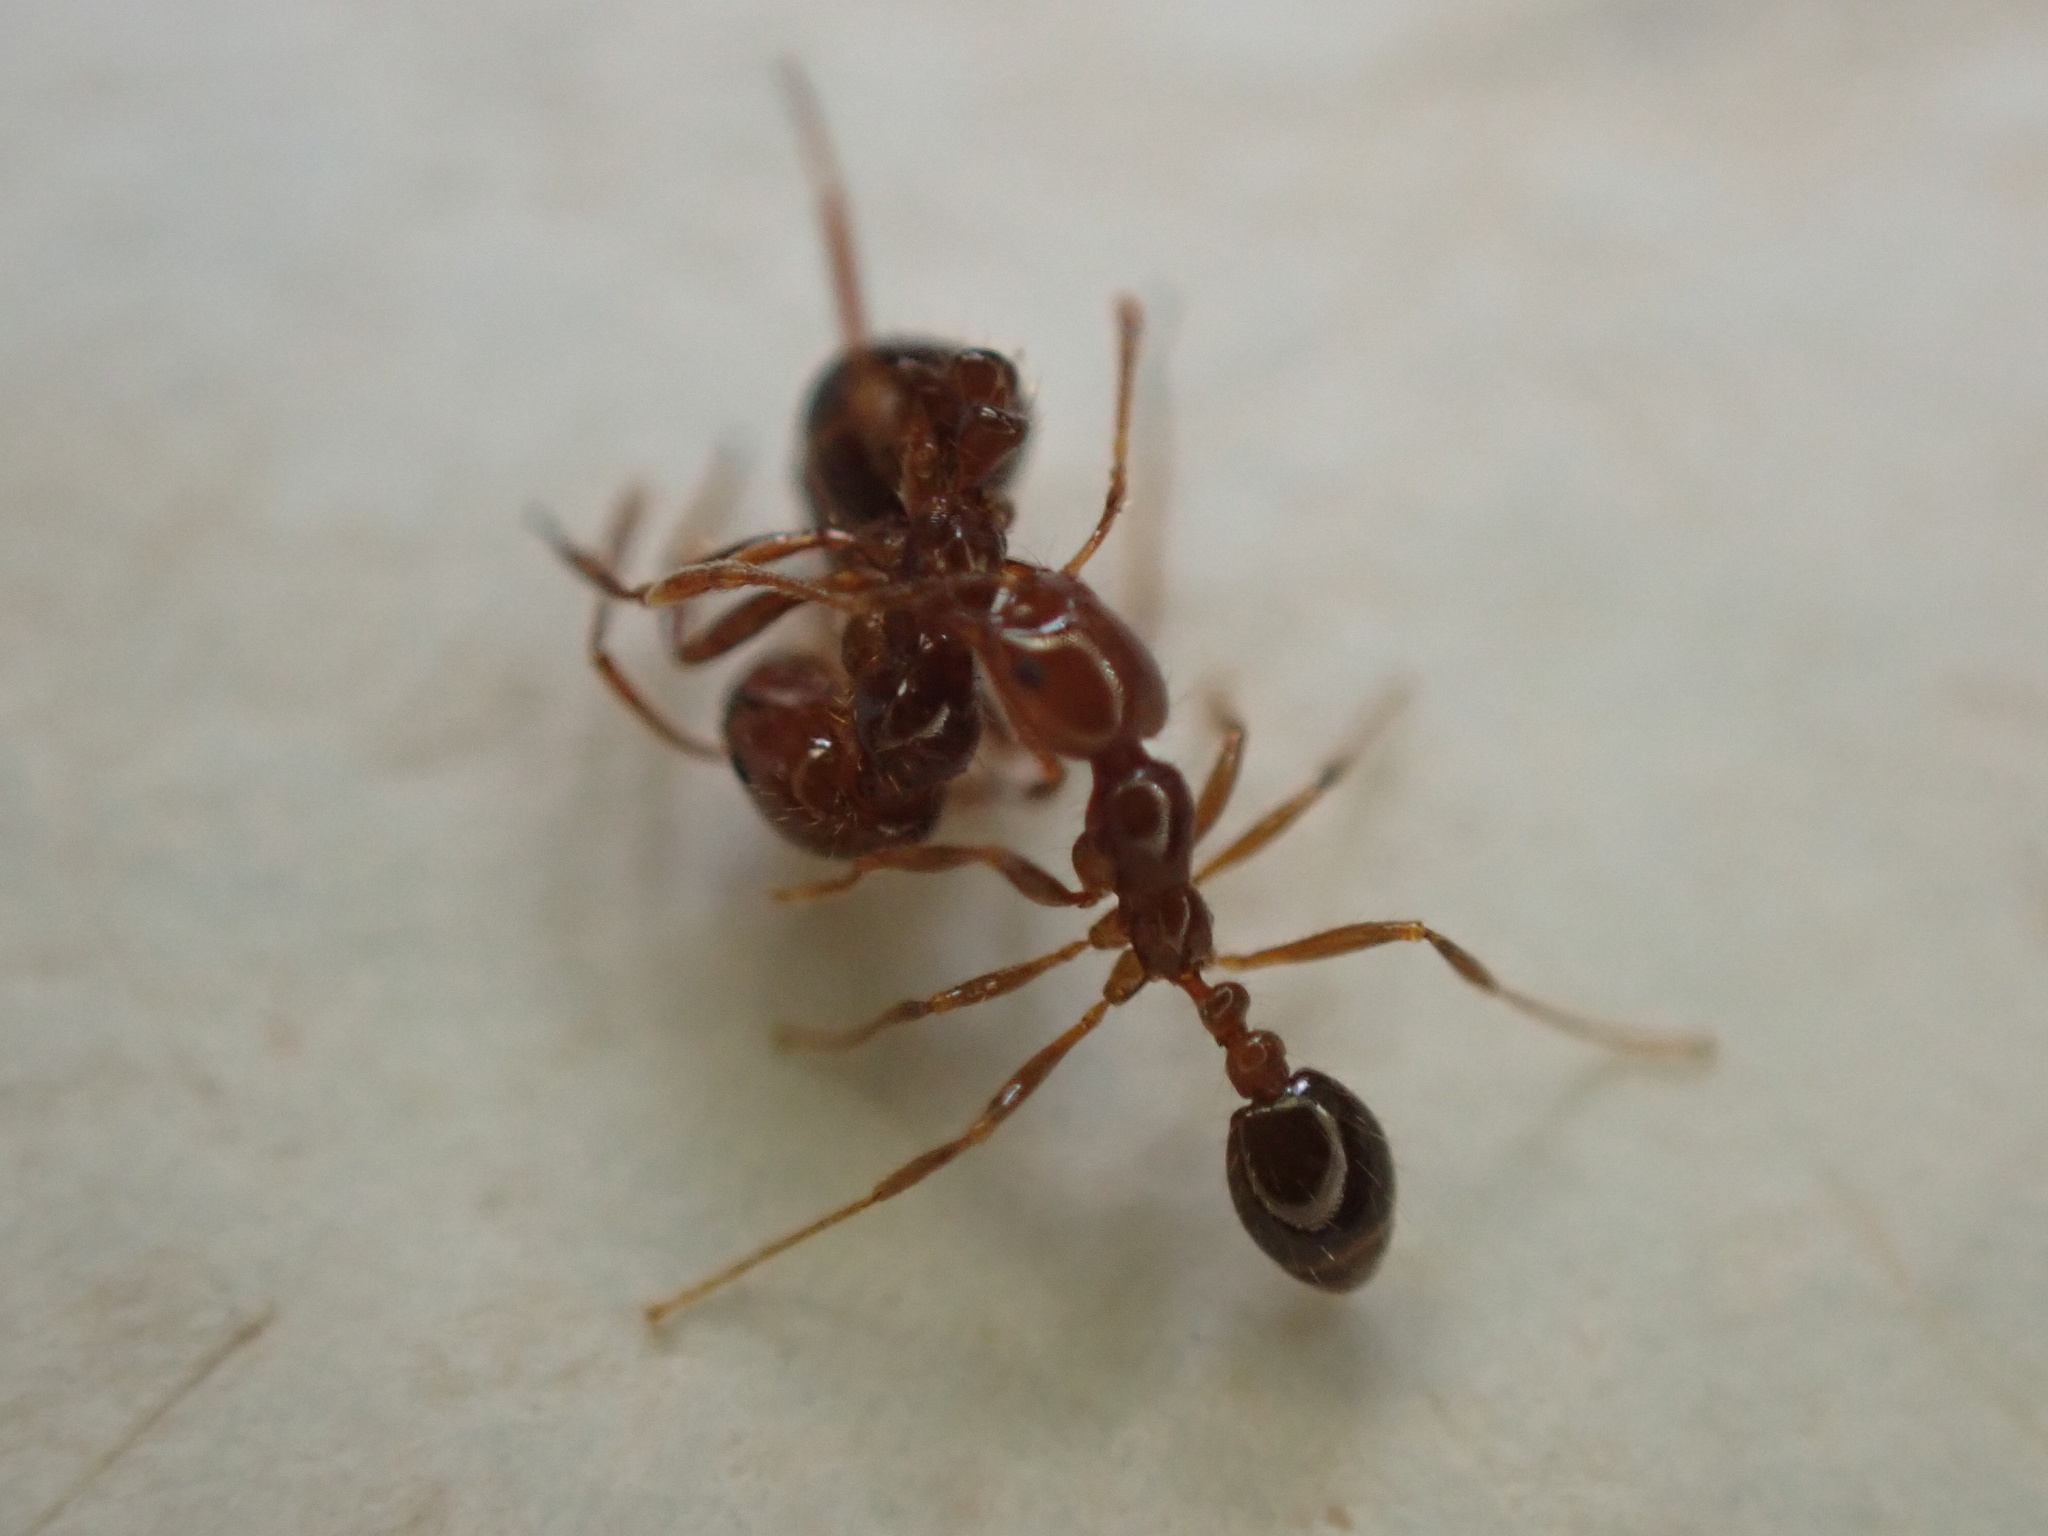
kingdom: Animalia
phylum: Arthropoda
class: Insecta
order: Hymenoptera
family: Formicidae
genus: Solenopsis
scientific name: Solenopsis invicta
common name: Red imported fire ant
